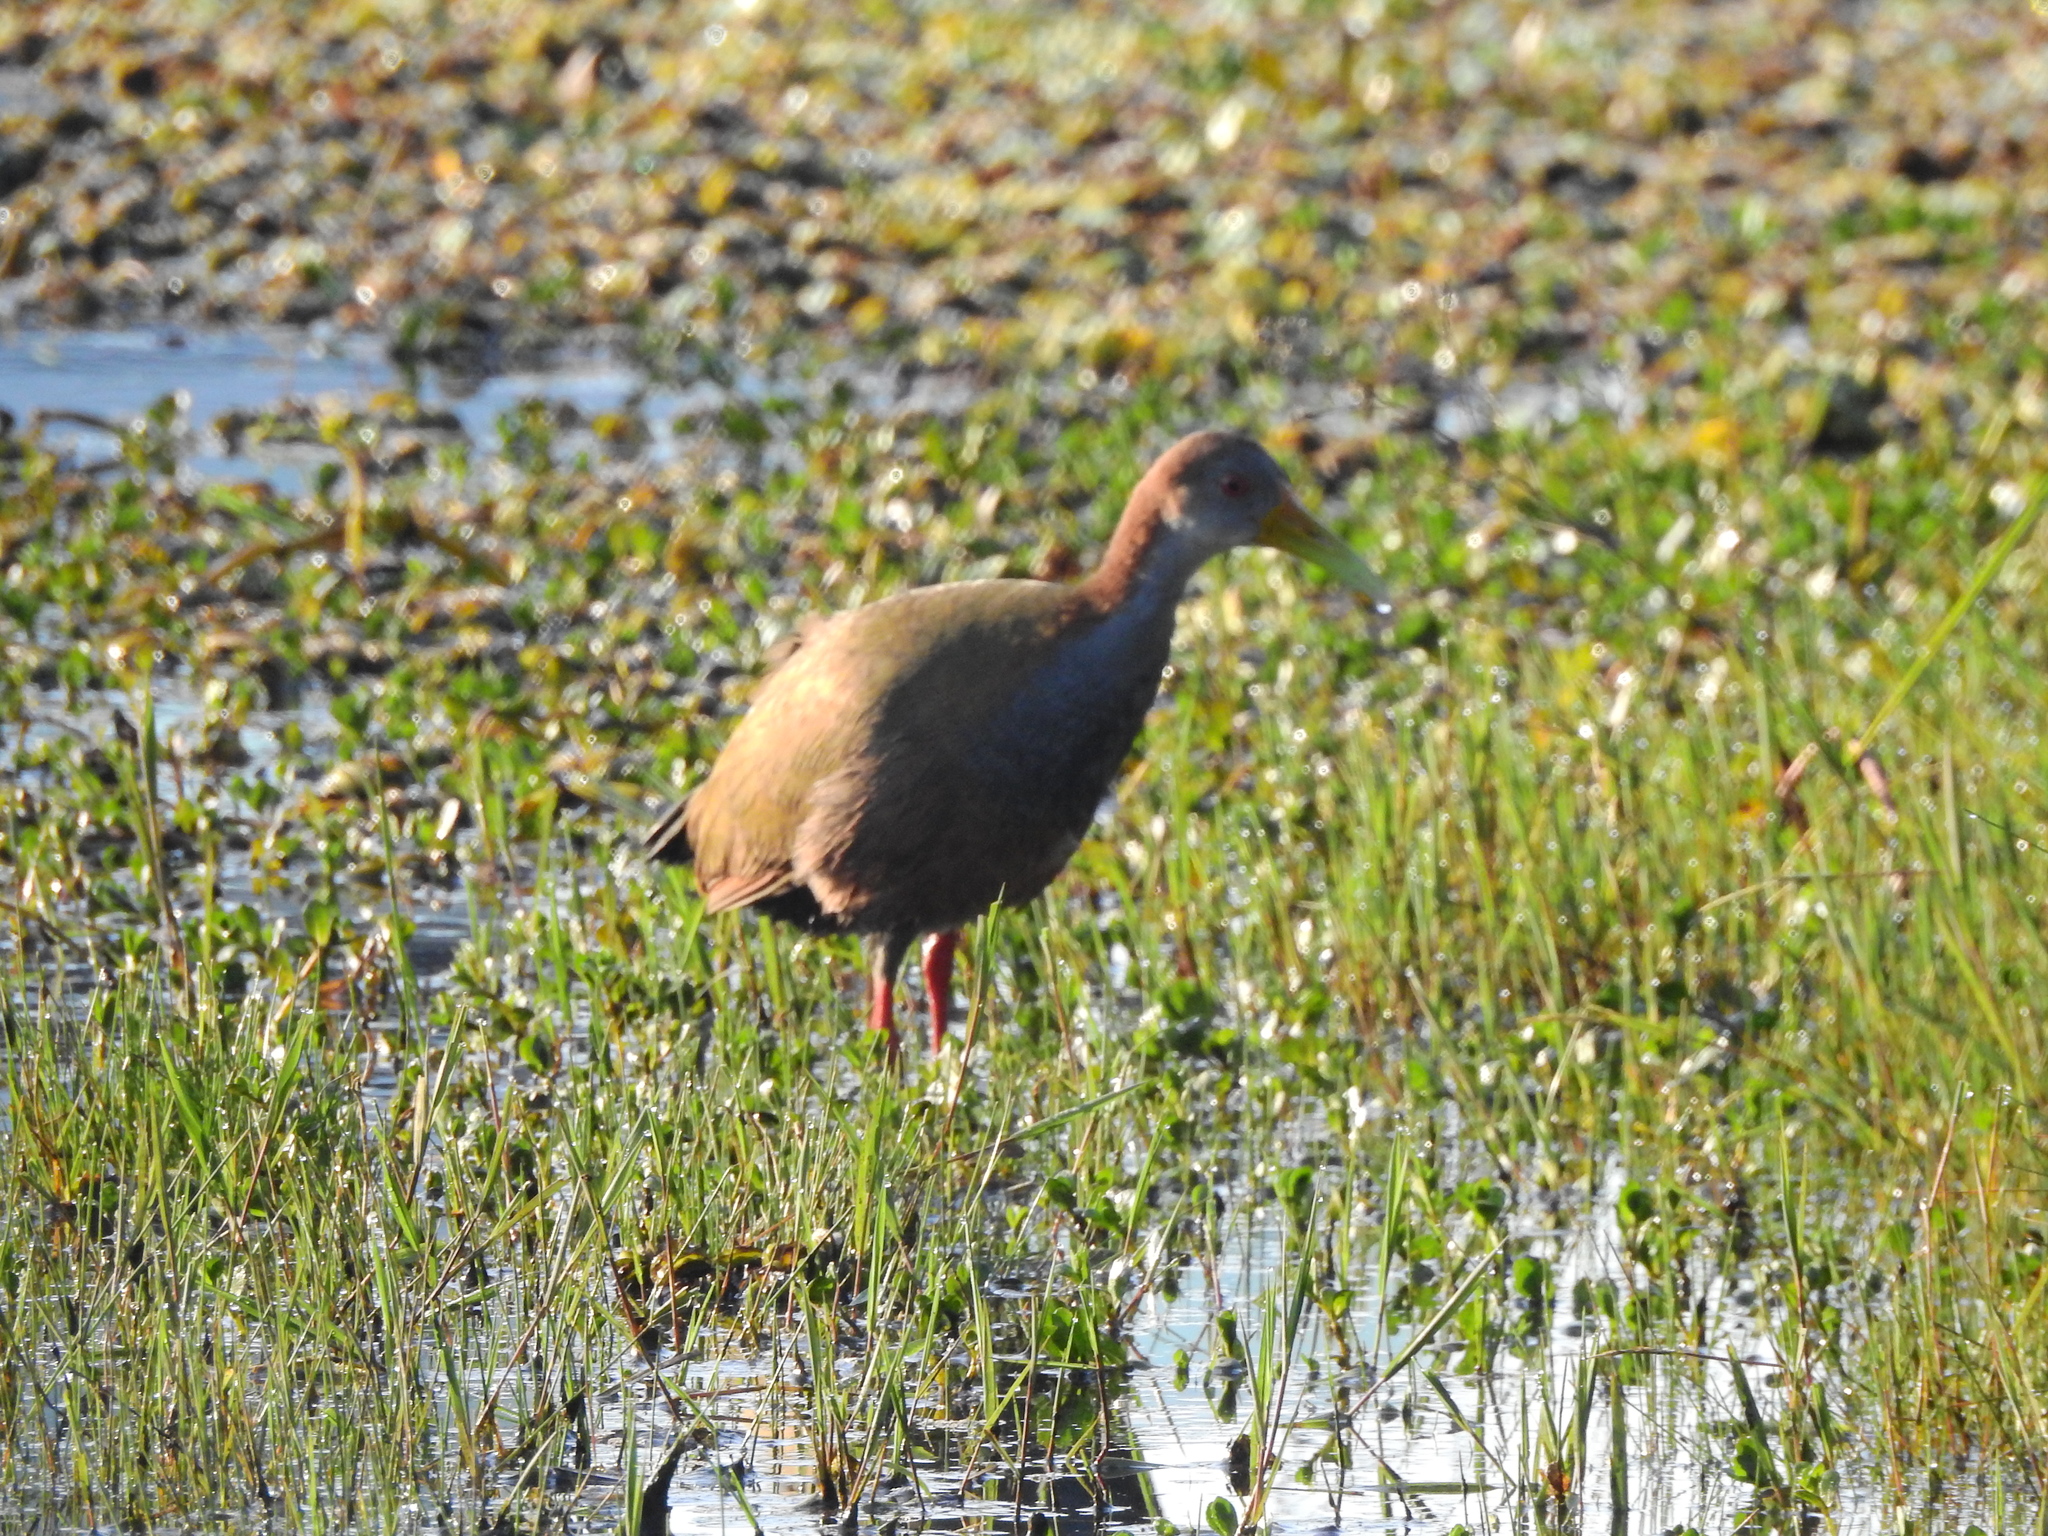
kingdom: Animalia
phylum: Chordata
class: Aves
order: Gruiformes
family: Rallidae
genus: Aramides
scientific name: Aramides ypecaha
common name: Giant wood rail
